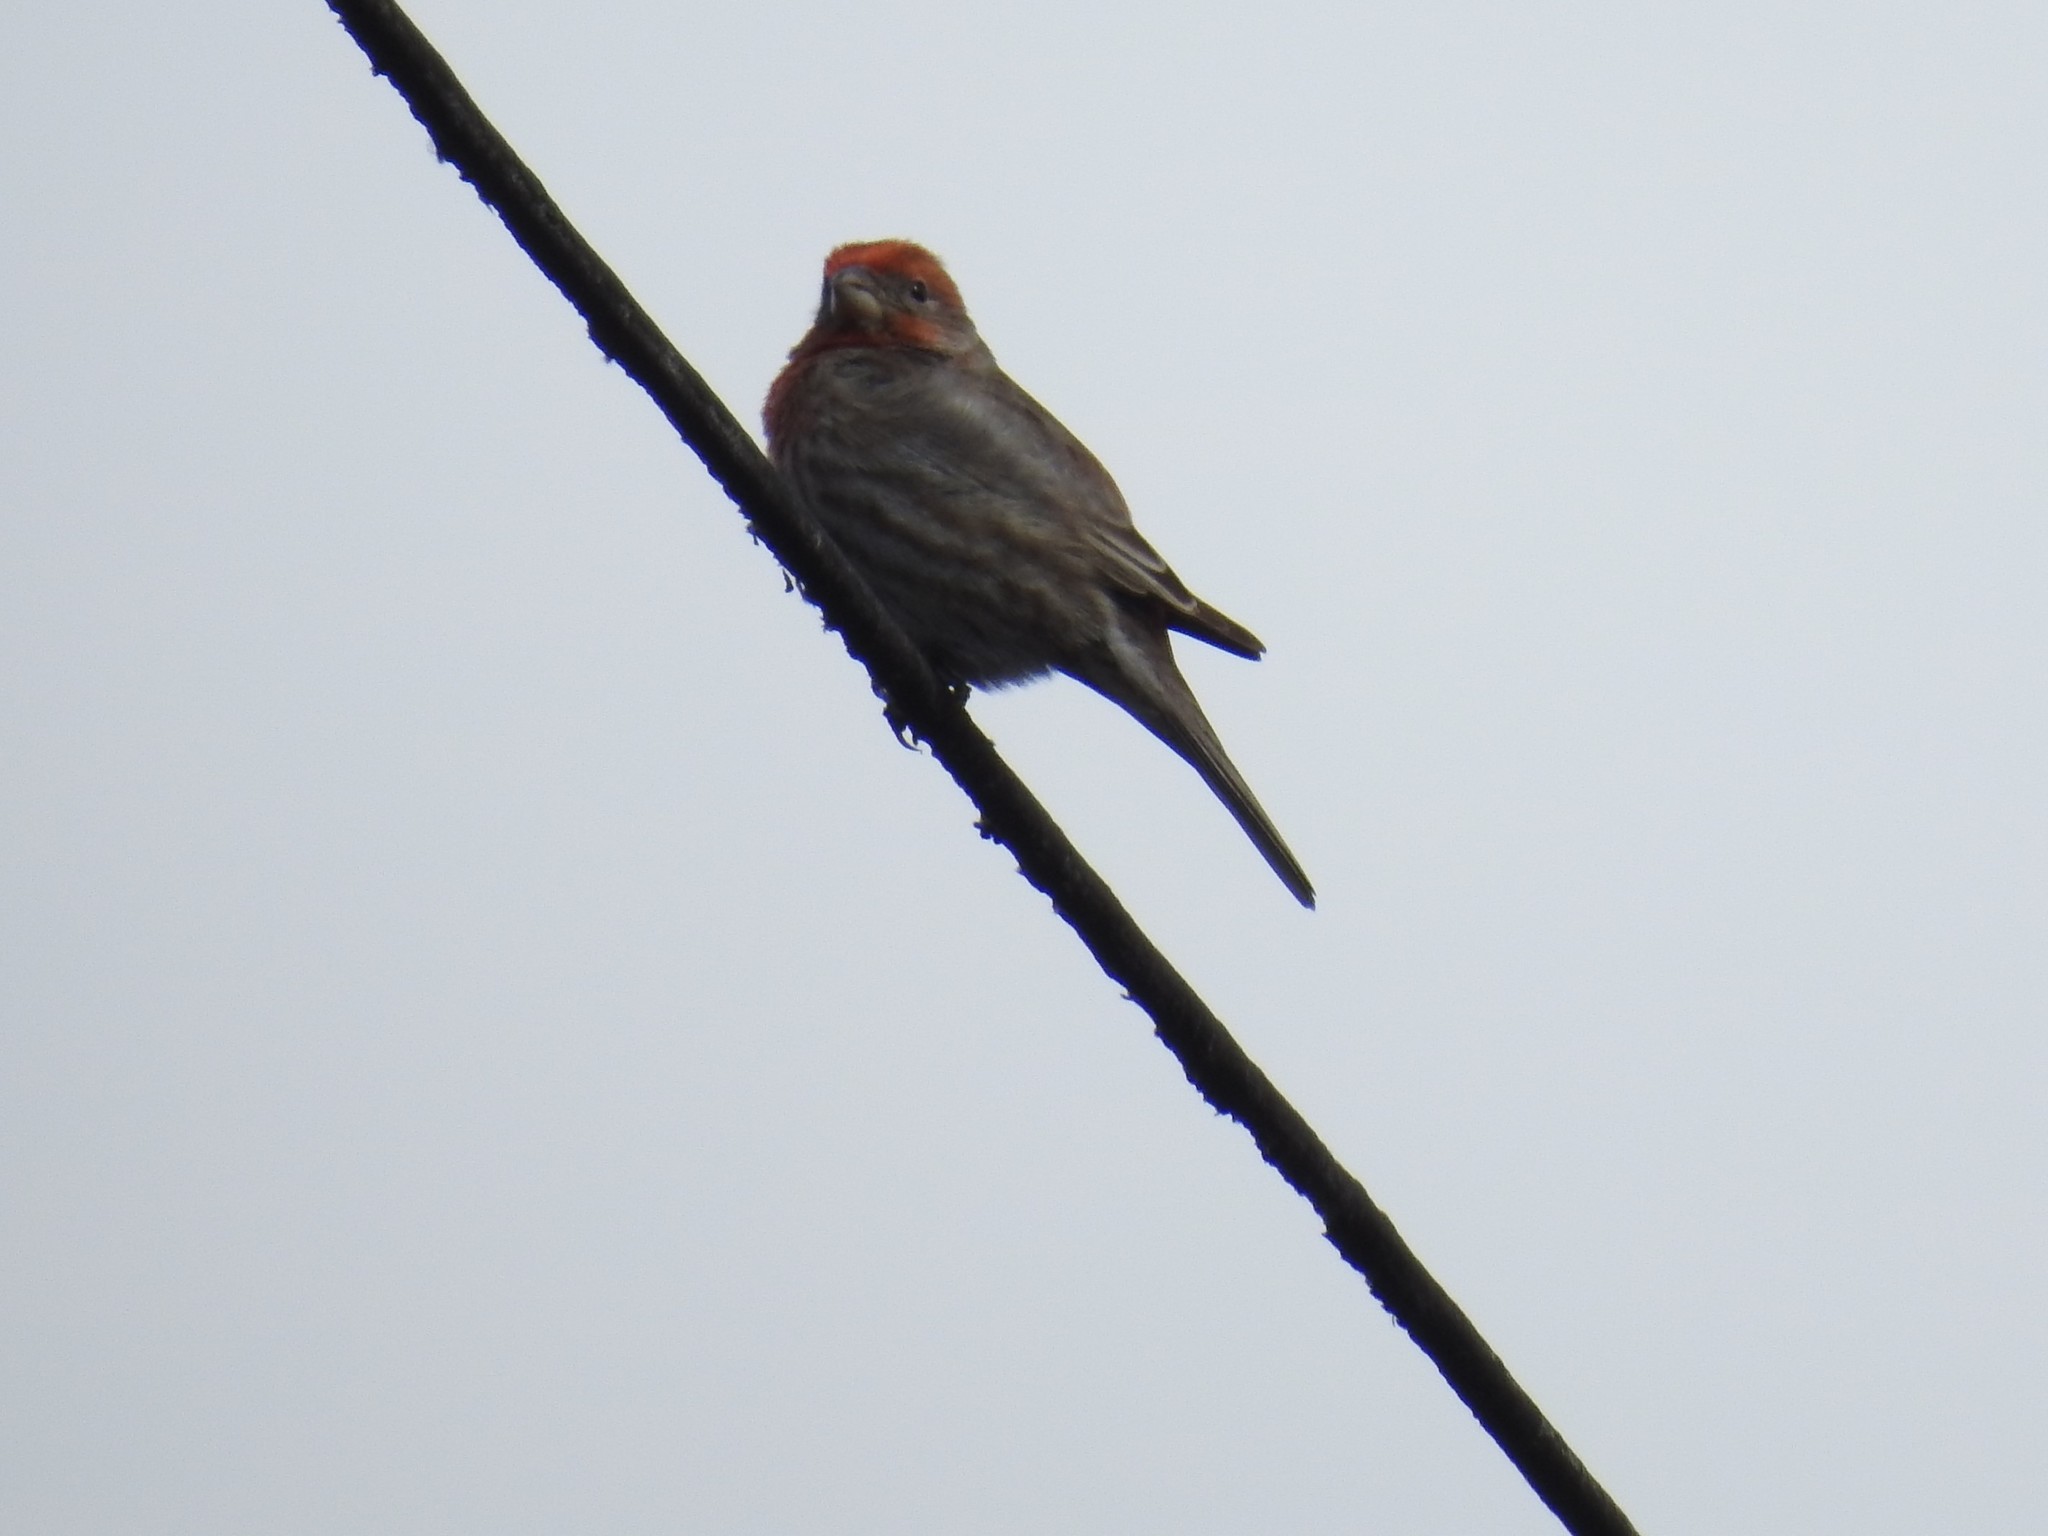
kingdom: Animalia
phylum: Chordata
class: Aves
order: Passeriformes
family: Fringillidae
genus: Haemorhous
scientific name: Haemorhous mexicanus
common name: House finch
